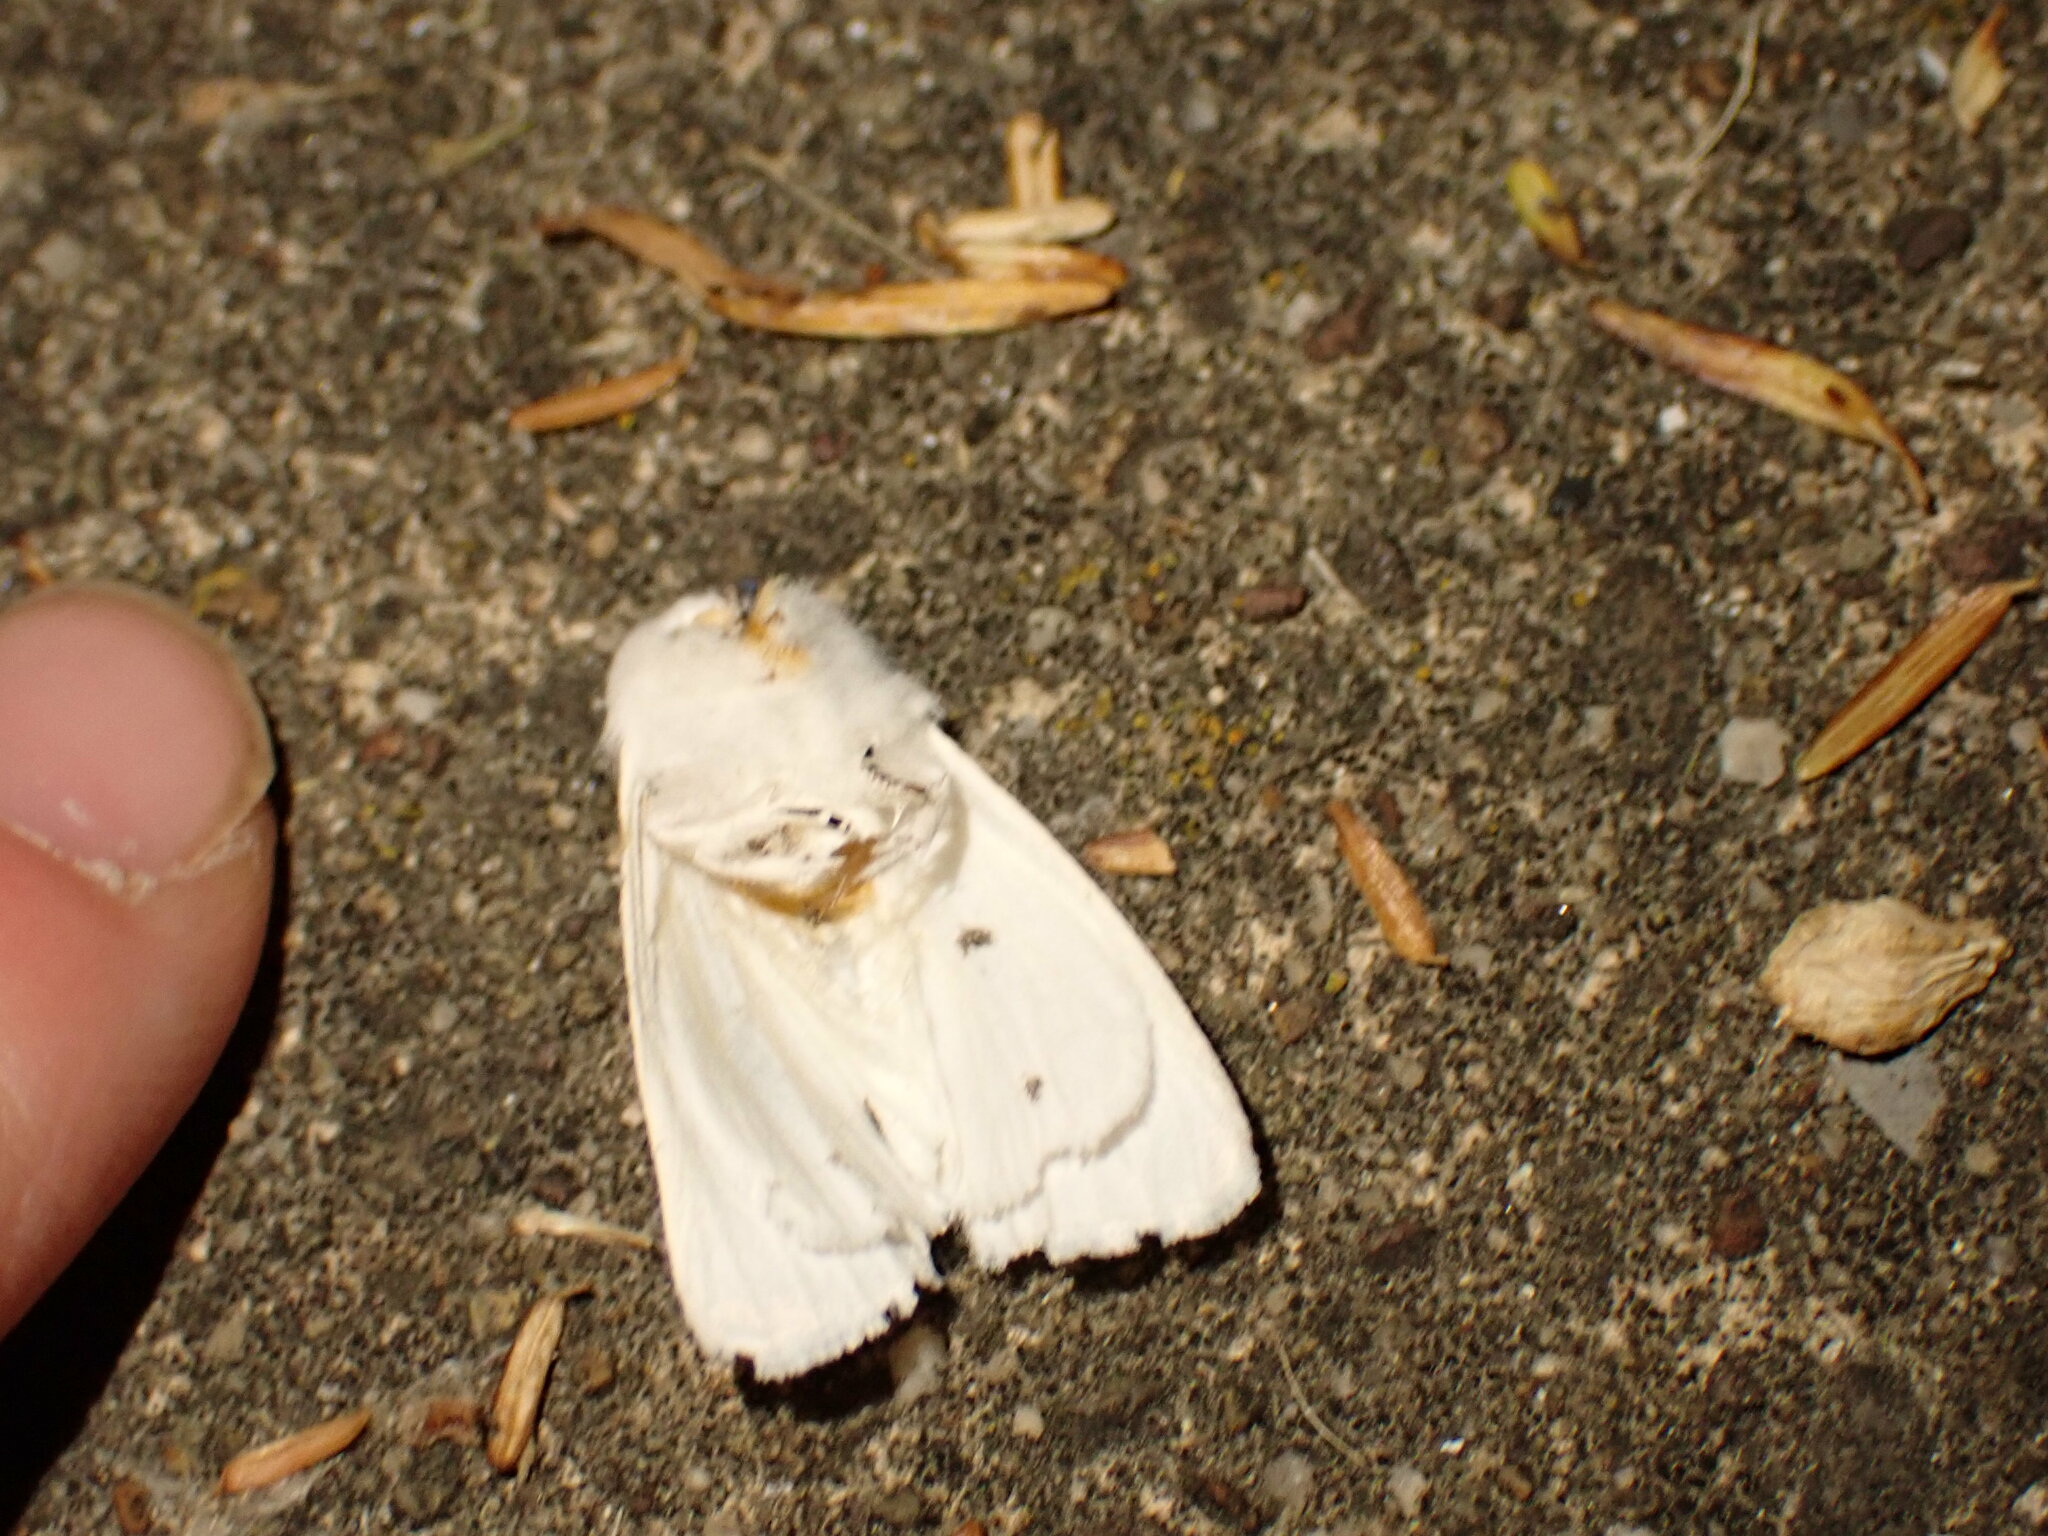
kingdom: Animalia
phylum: Arthropoda
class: Insecta
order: Lepidoptera
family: Erebidae
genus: Spilosoma
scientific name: Spilosoma virginica
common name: Virginia tiger moth
